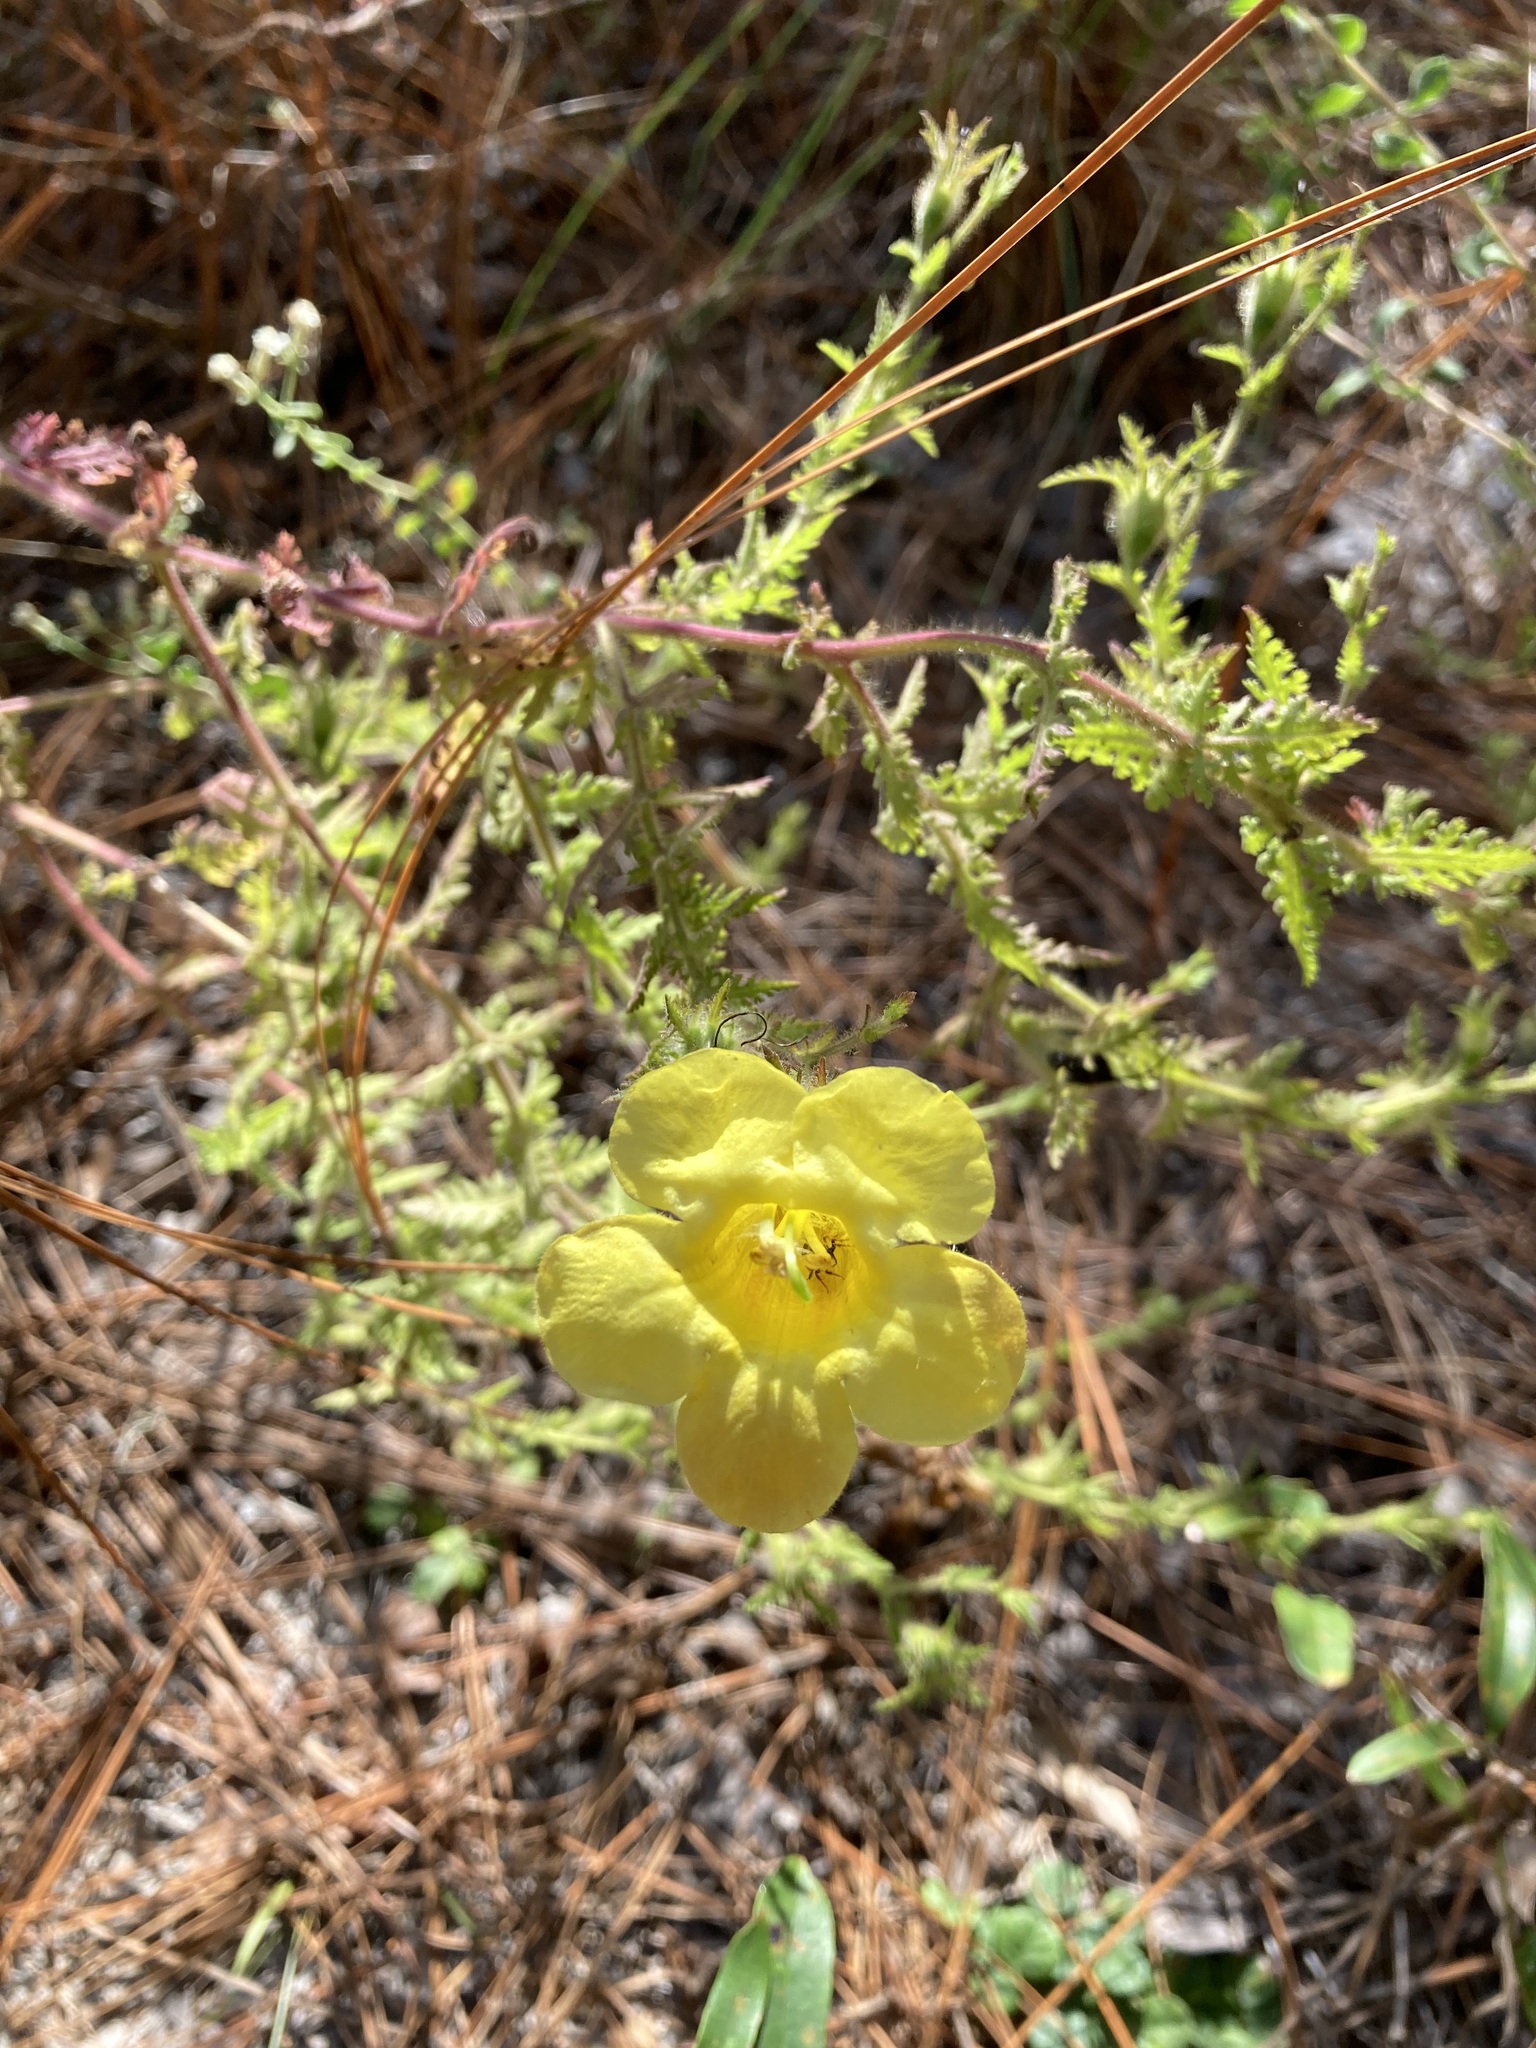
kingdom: Plantae
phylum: Tracheophyta
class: Magnoliopsida
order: Lamiales
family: Orobanchaceae
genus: Aureolaria
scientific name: Aureolaria pectinata
